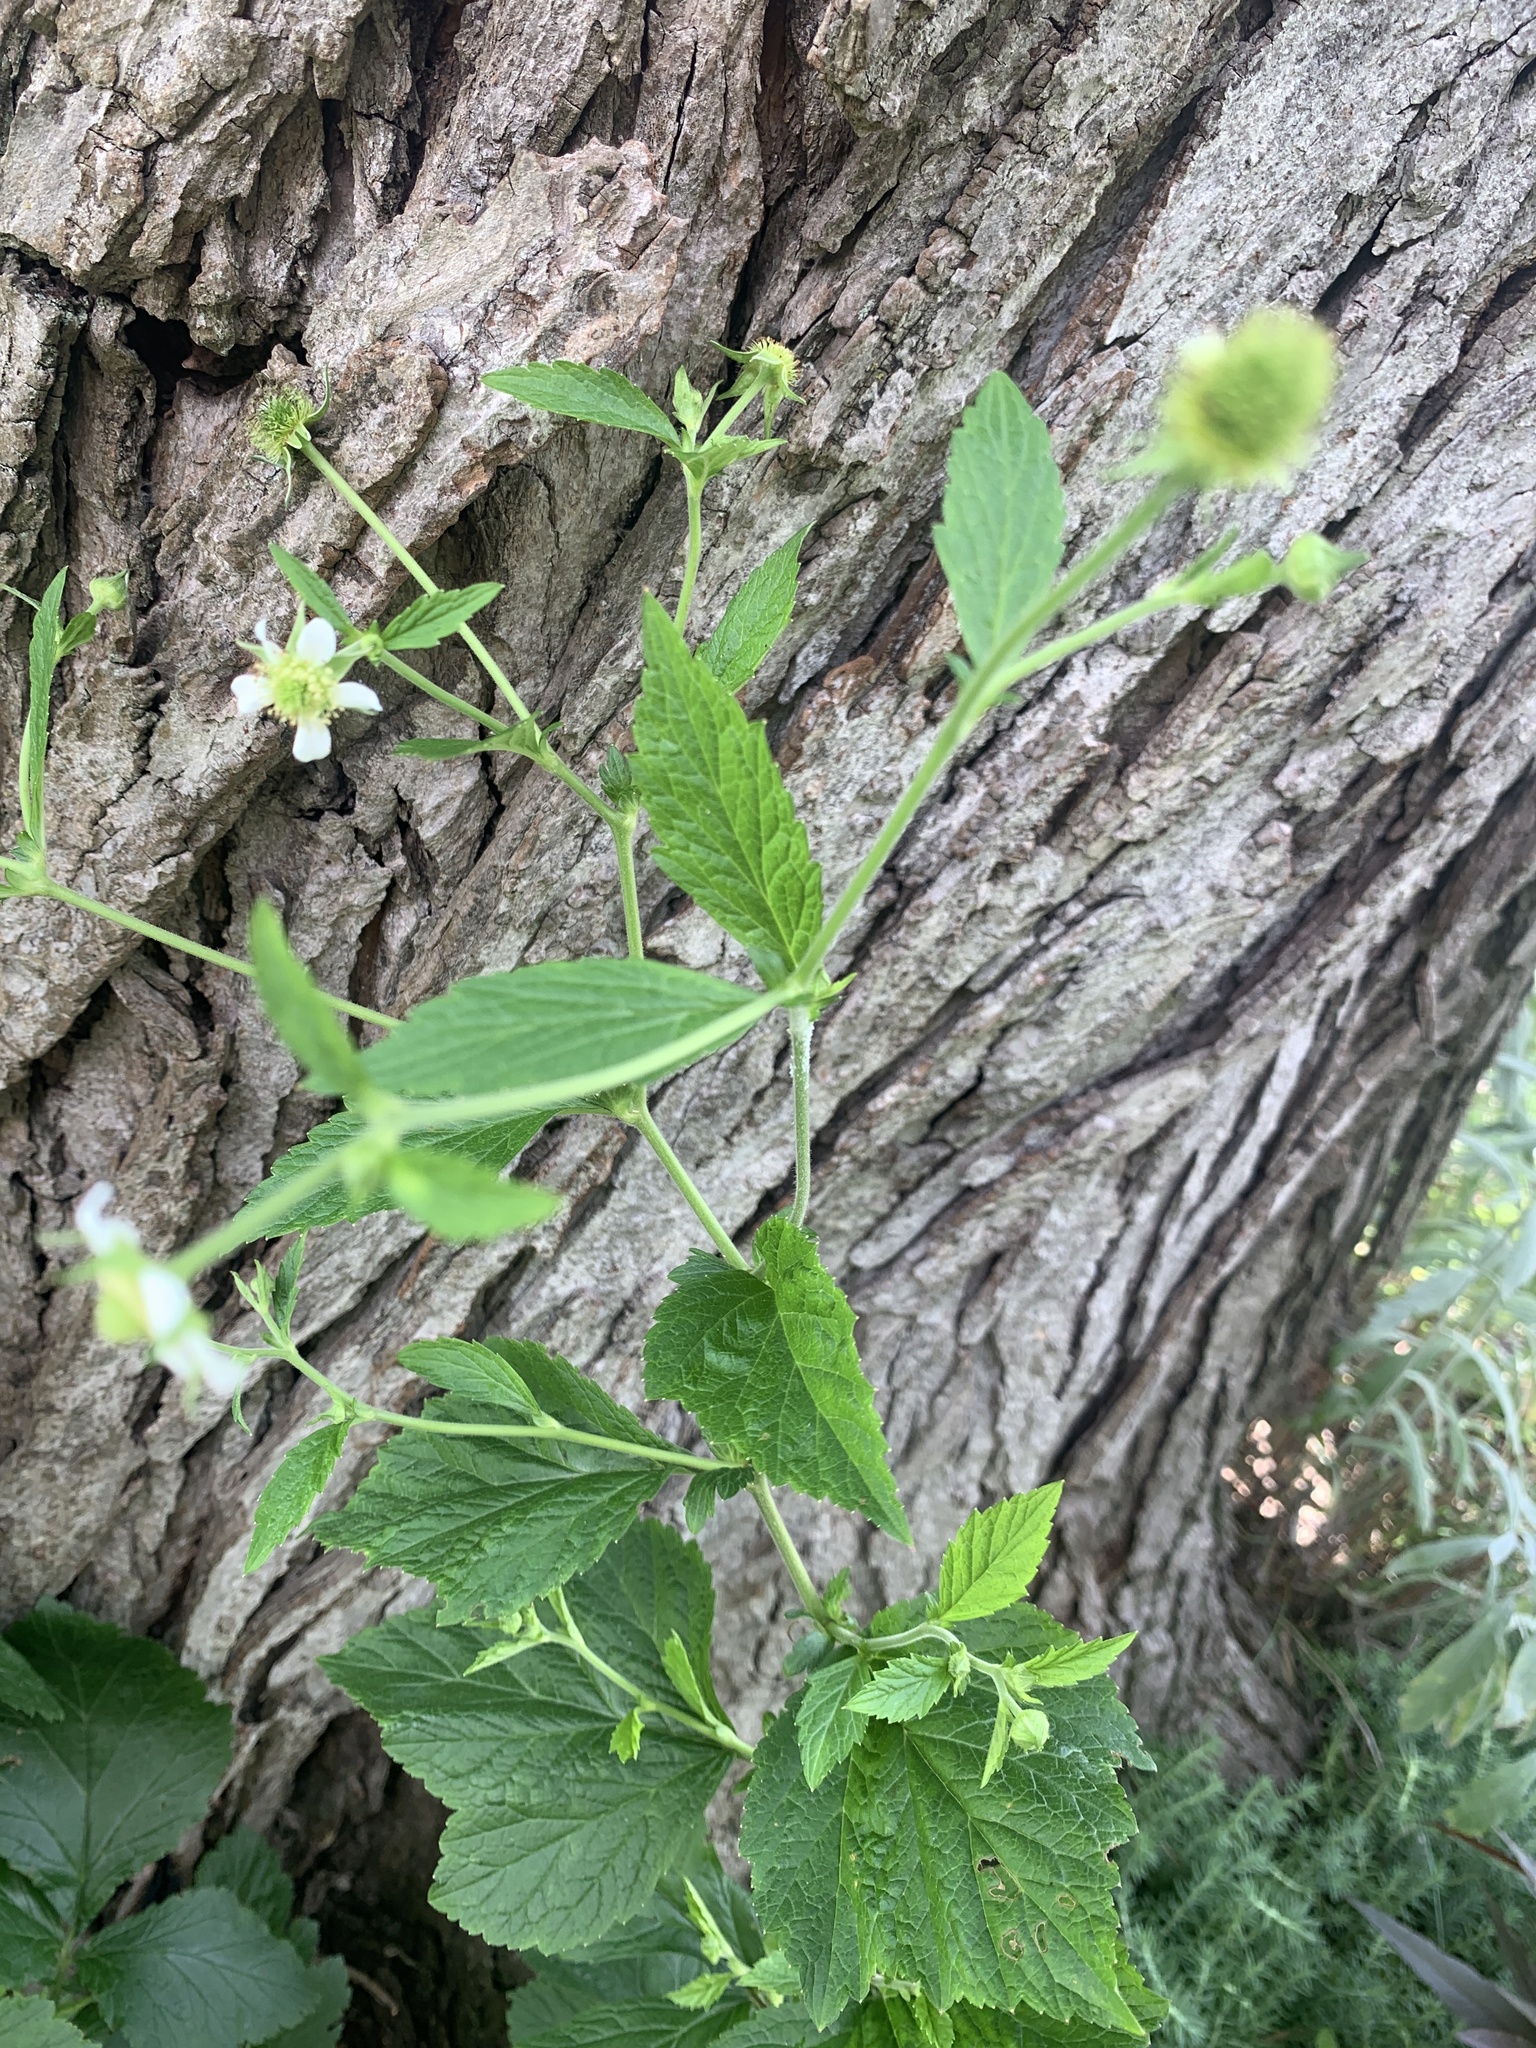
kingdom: Plantae
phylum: Tracheophyta
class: Magnoliopsida
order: Rosales
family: Rosaceae
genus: Geum
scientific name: Geum canadense
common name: White avens
